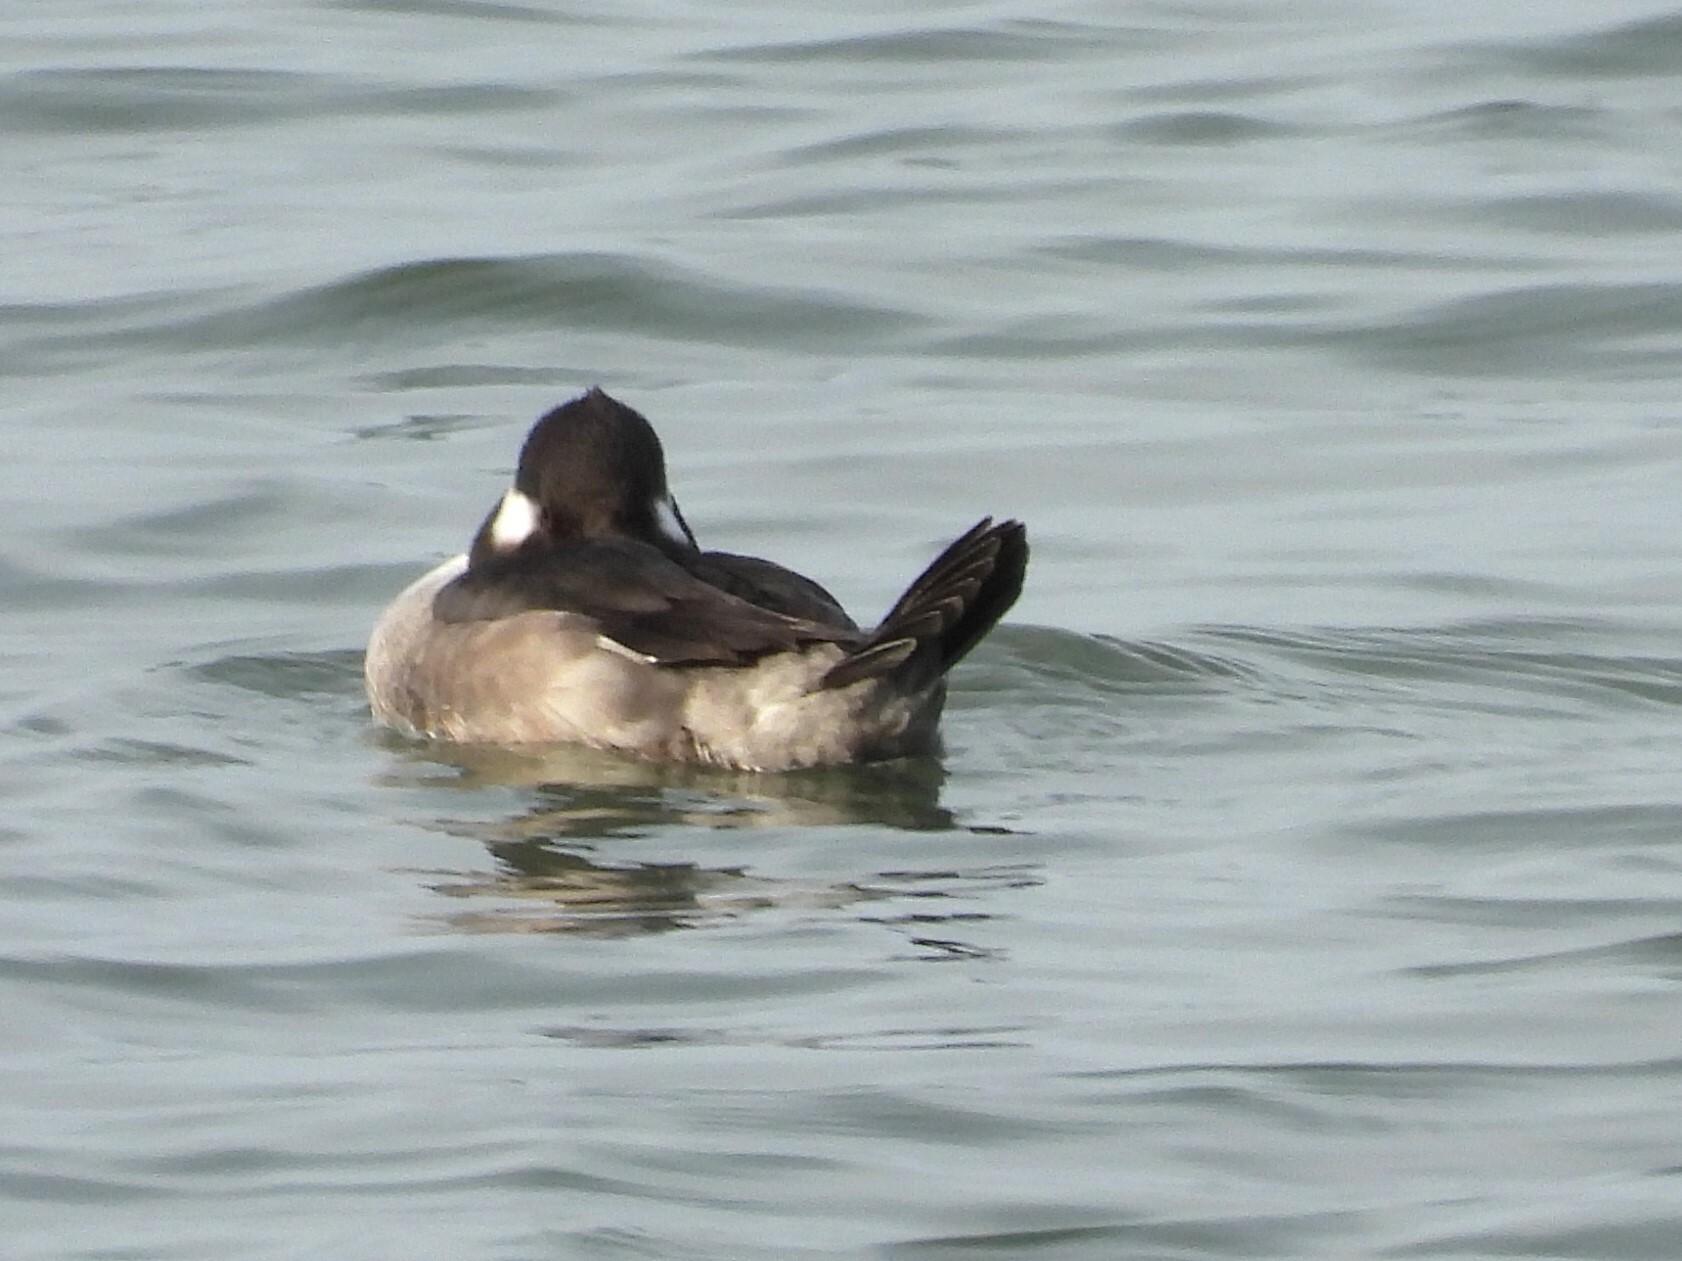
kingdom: Animalia
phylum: Chordata
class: Aves
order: Anseriformes
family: Anatidae
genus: Bucephala
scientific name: Bucephala albeola
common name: Bufflehead
